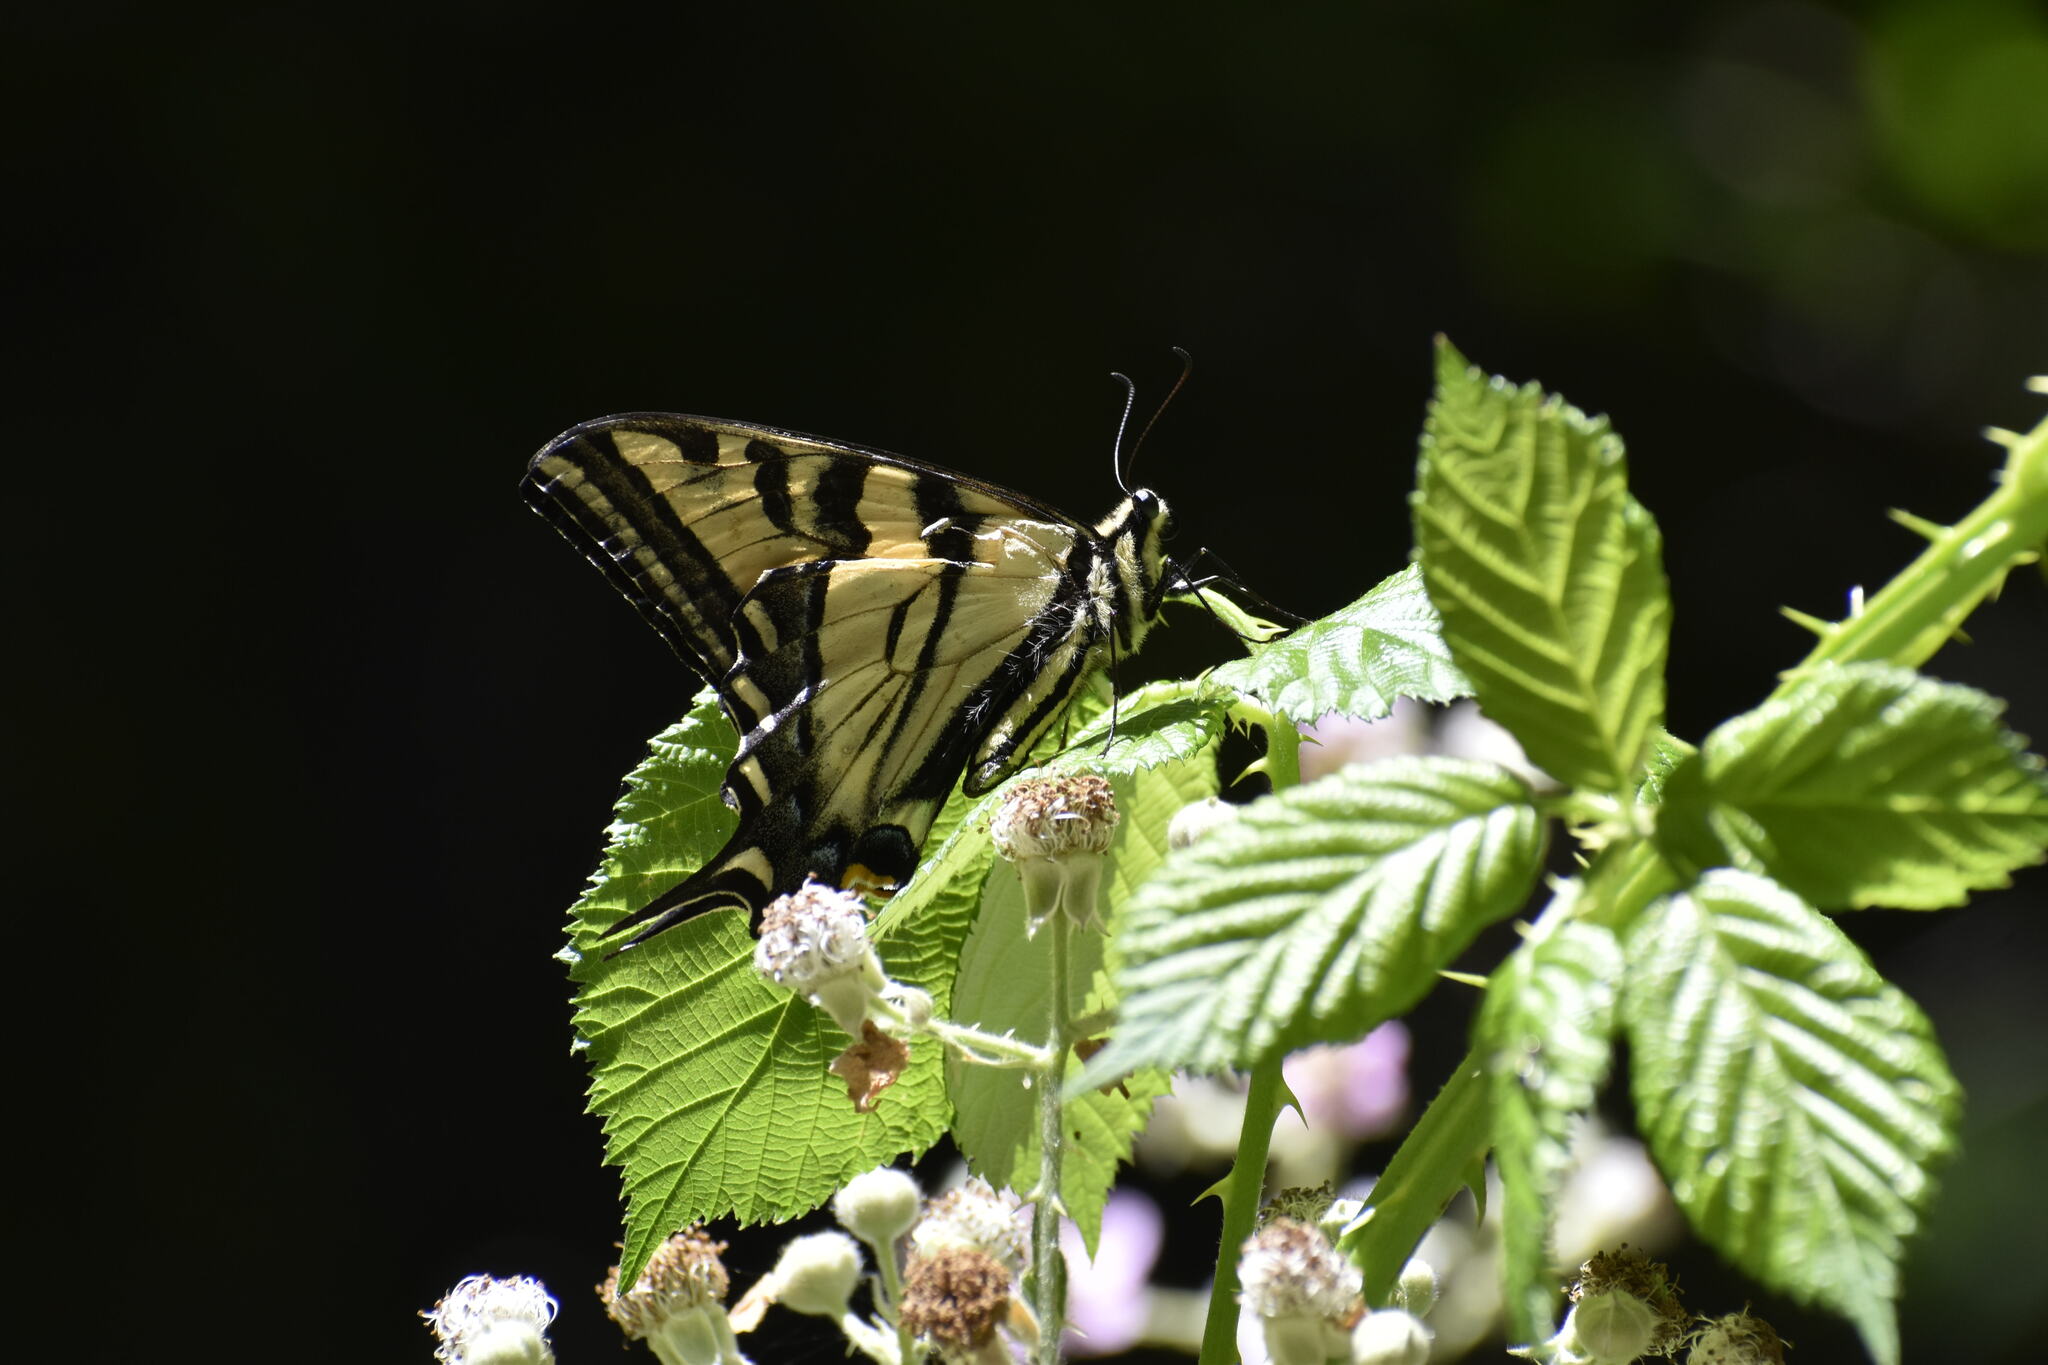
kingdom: Animalia
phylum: Arthropoda
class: Insecta
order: Lepidoptera
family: Papilionidae
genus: Papilio
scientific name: Papilio rutulus
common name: Western tiger swallowtail
